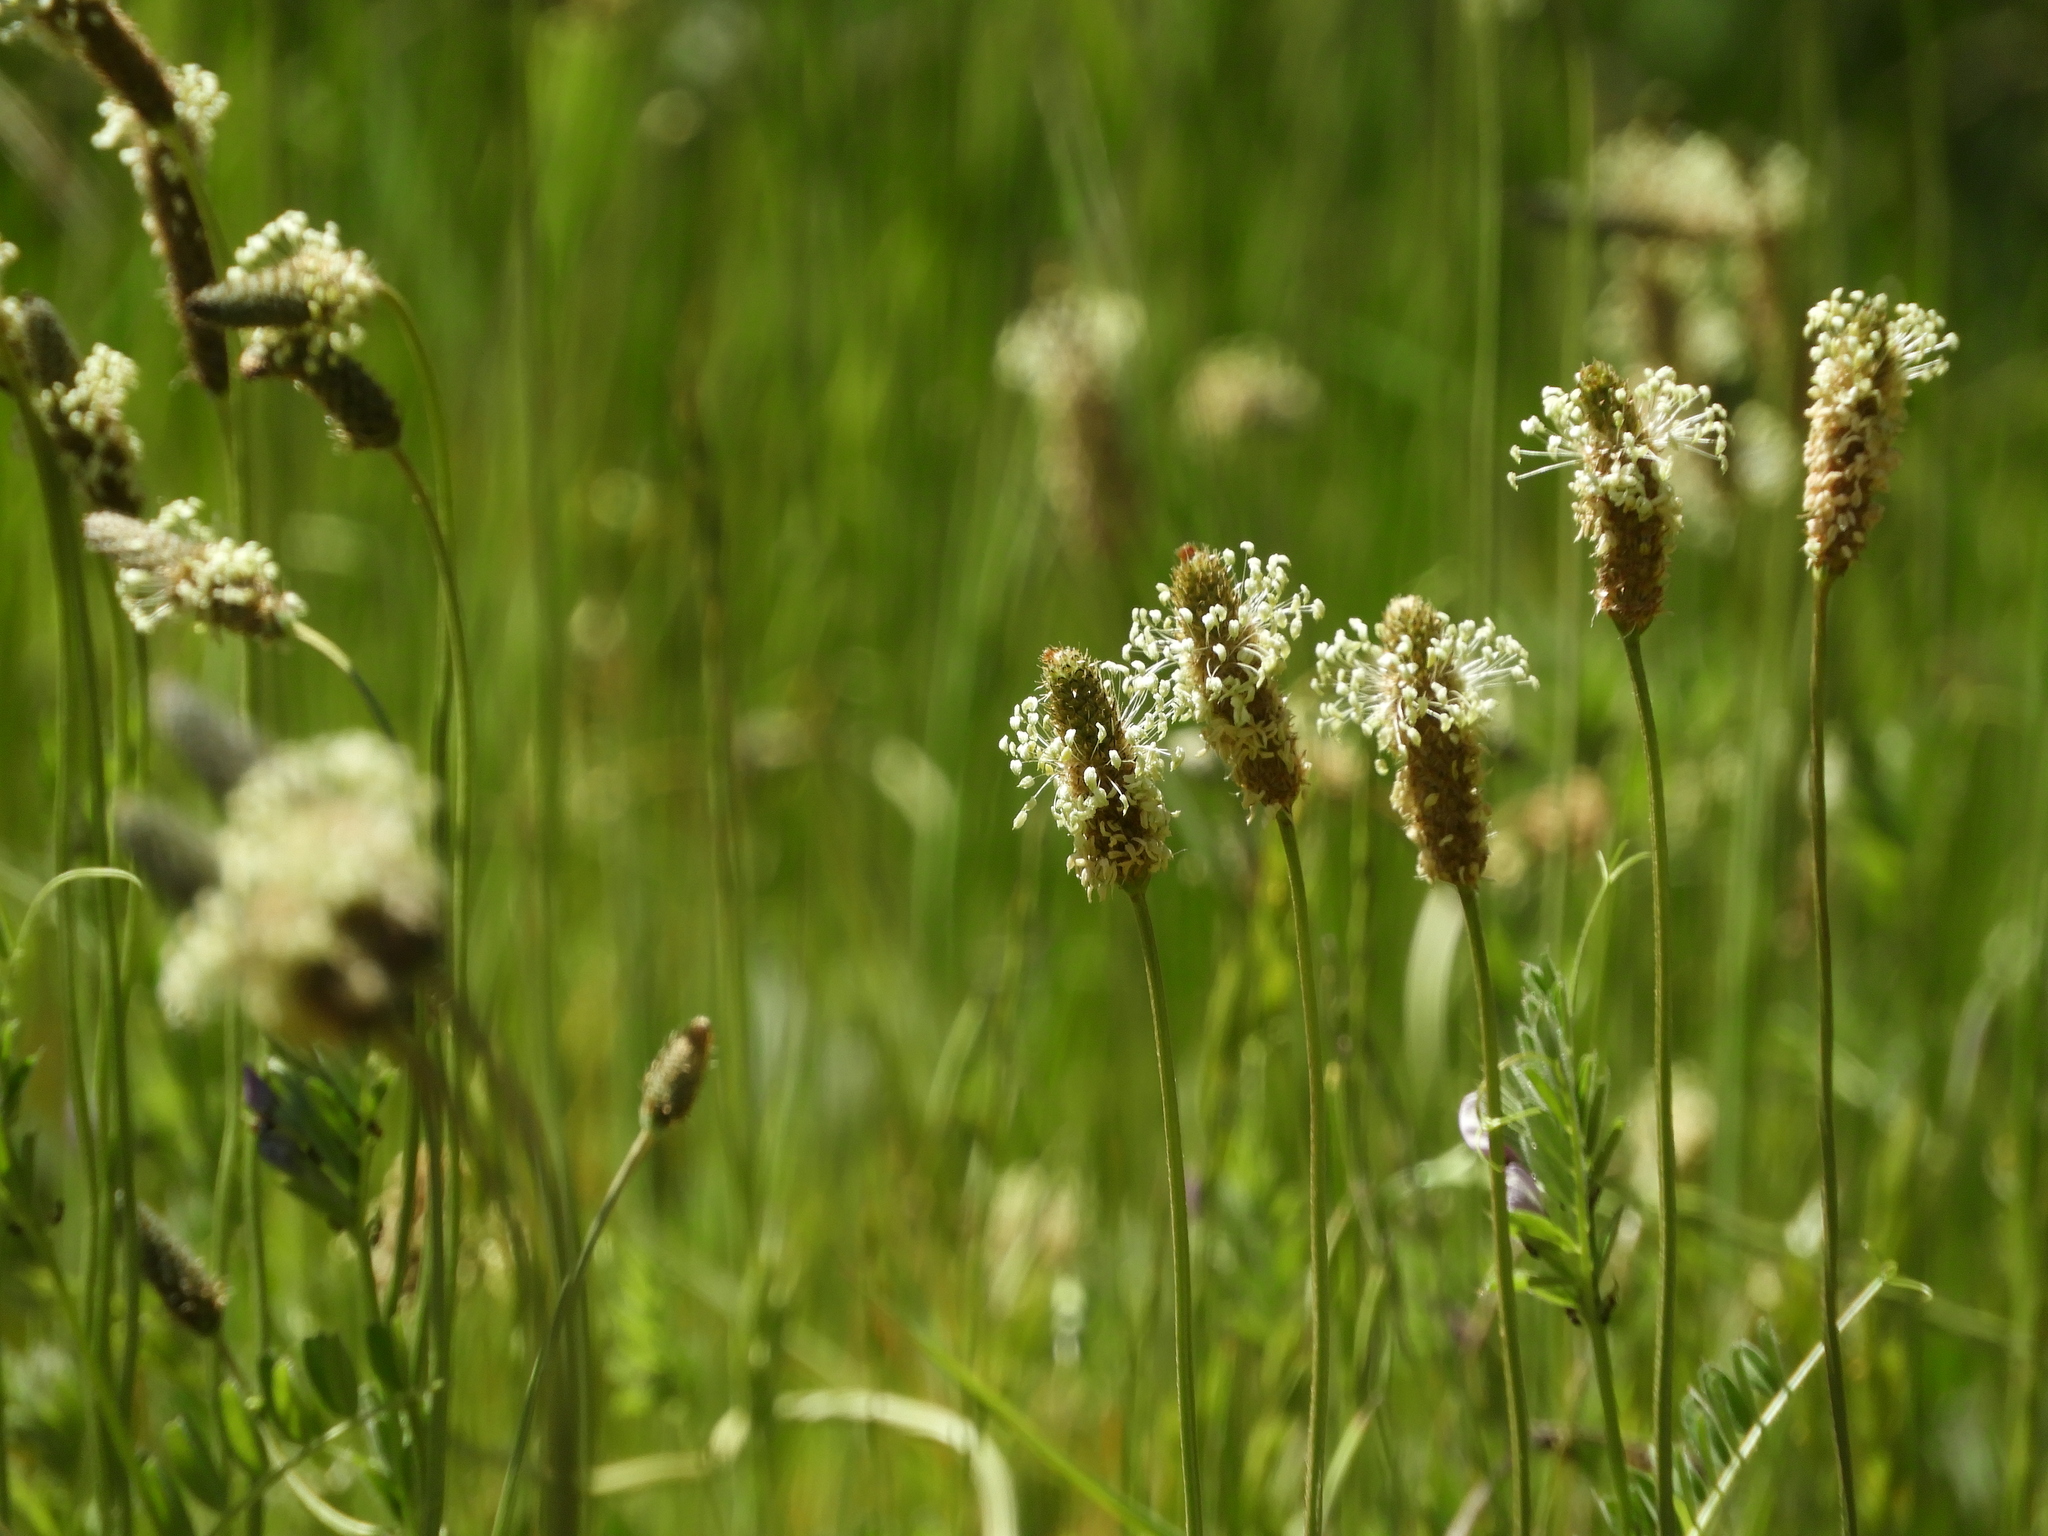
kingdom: Plantae
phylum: Tracheophyta
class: Magnoliopsida
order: Lamiales
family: Plantaginaceae
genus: Plantago
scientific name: Plantago lanceolata
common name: Ribwort plantain
